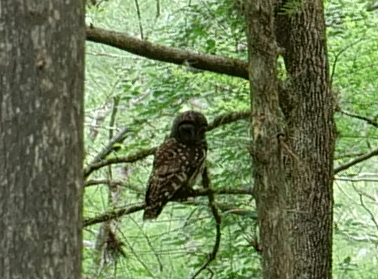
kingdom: Animalia
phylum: Chordata
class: Aves
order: Strigiformes
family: Strigidae
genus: Strix
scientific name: Strix varia
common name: Barred owl
